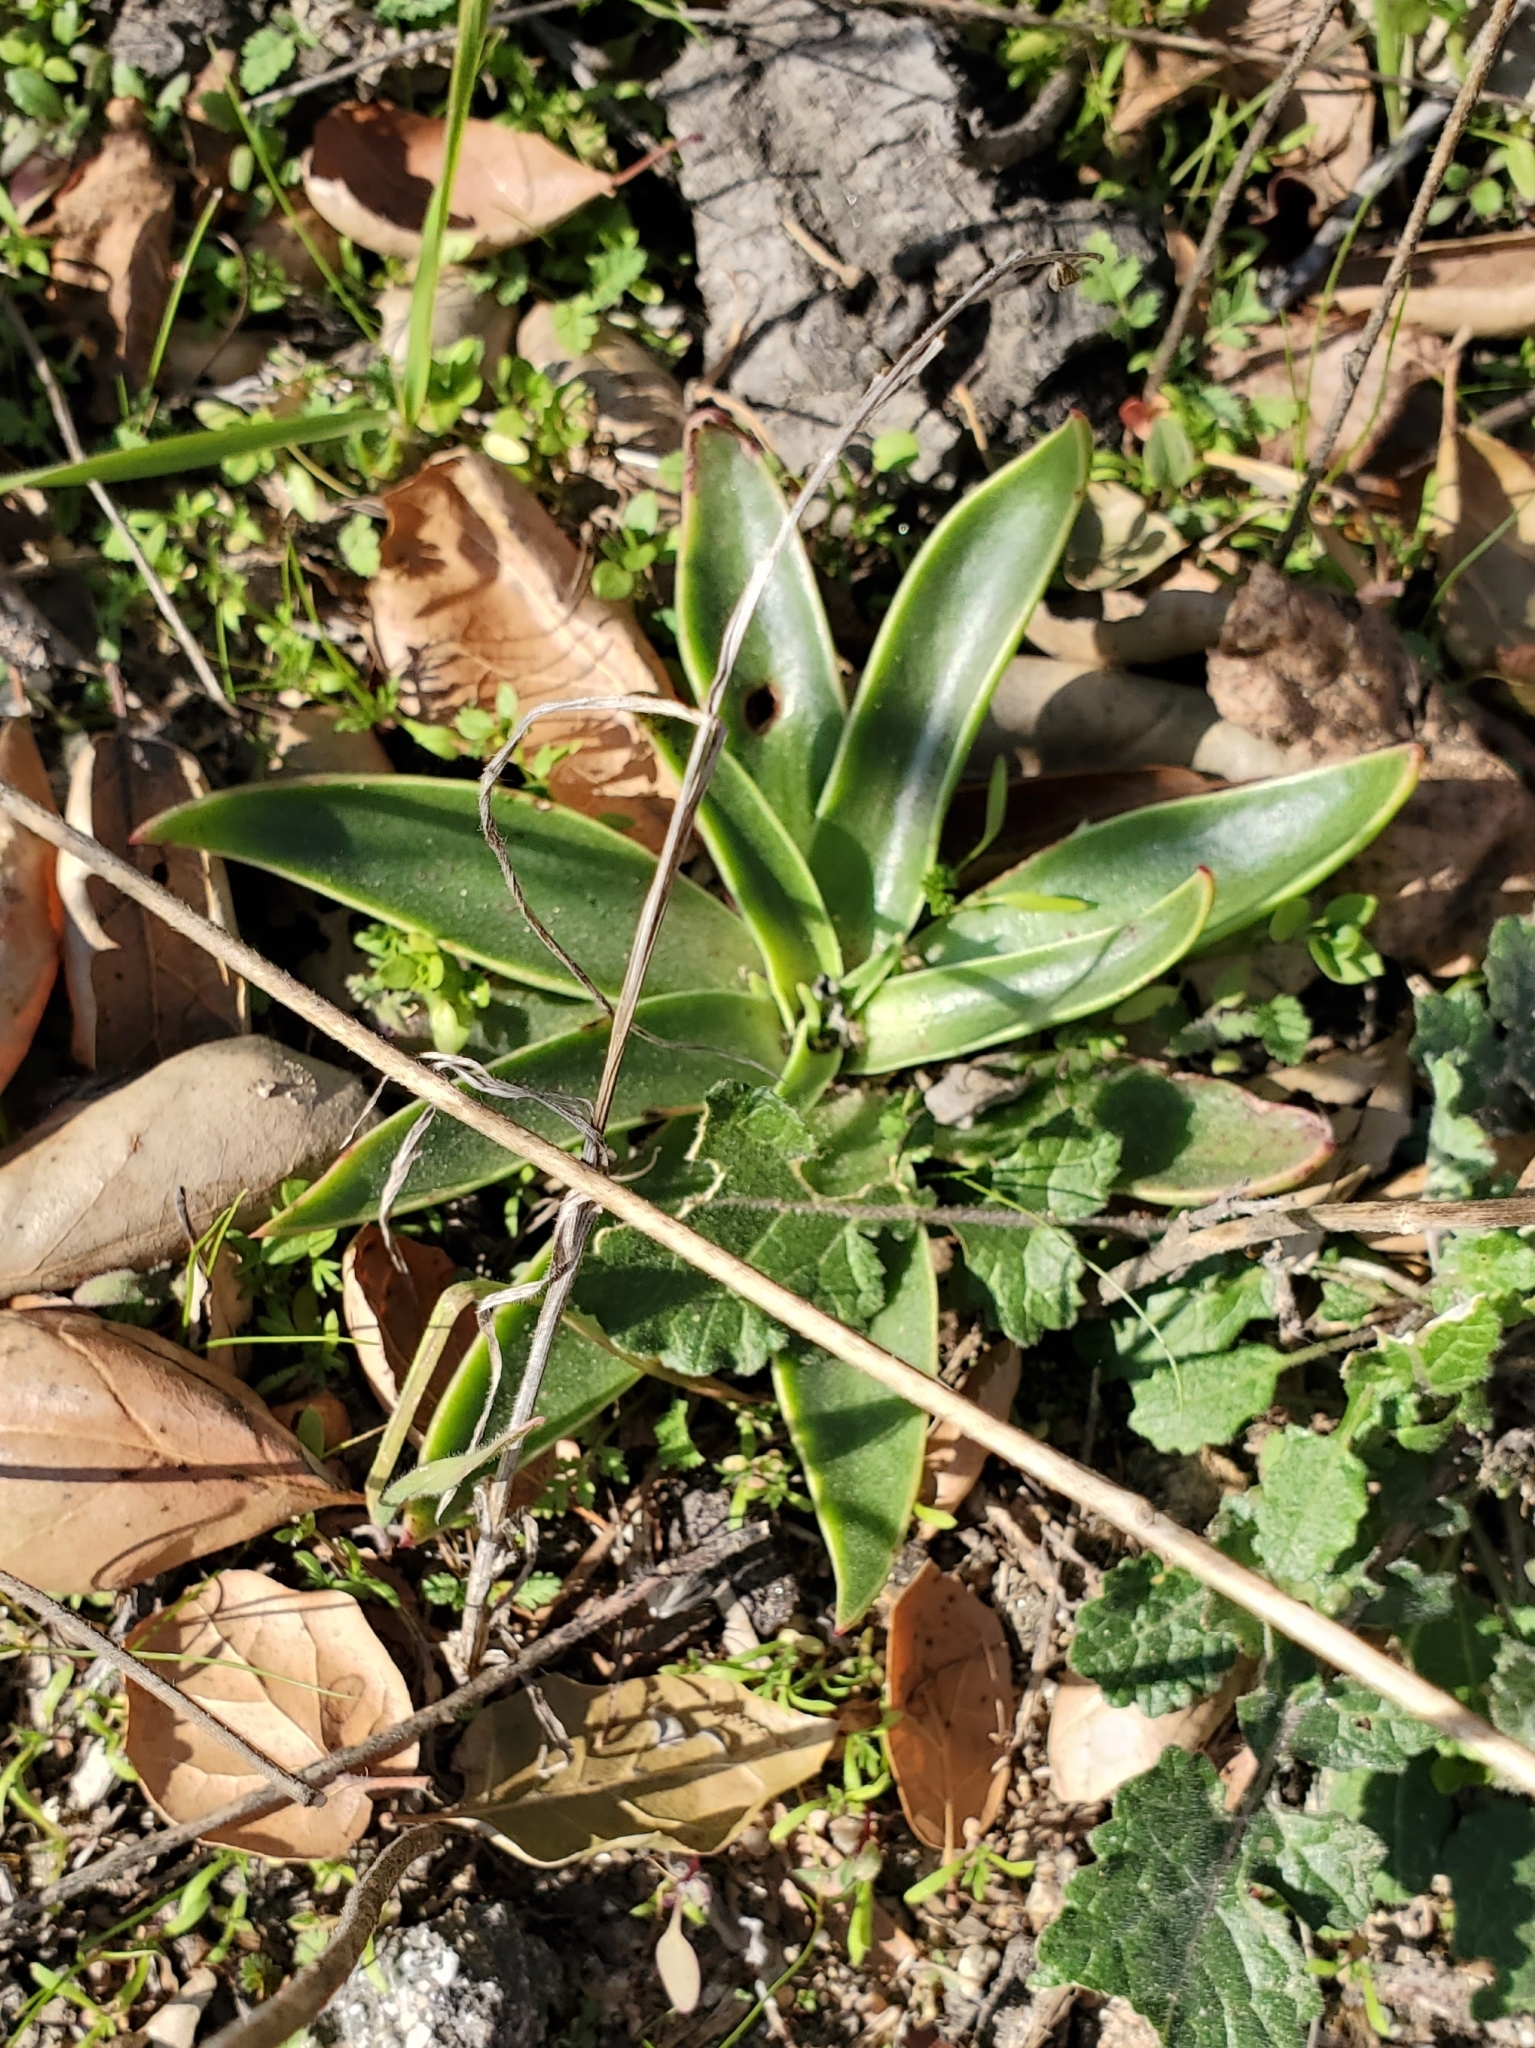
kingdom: Plantae
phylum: Tracheophyta
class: Magnoliopsida
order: Saxifragales
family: Crassulaceae
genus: Dudleya
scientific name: Dudleya lanceolata
